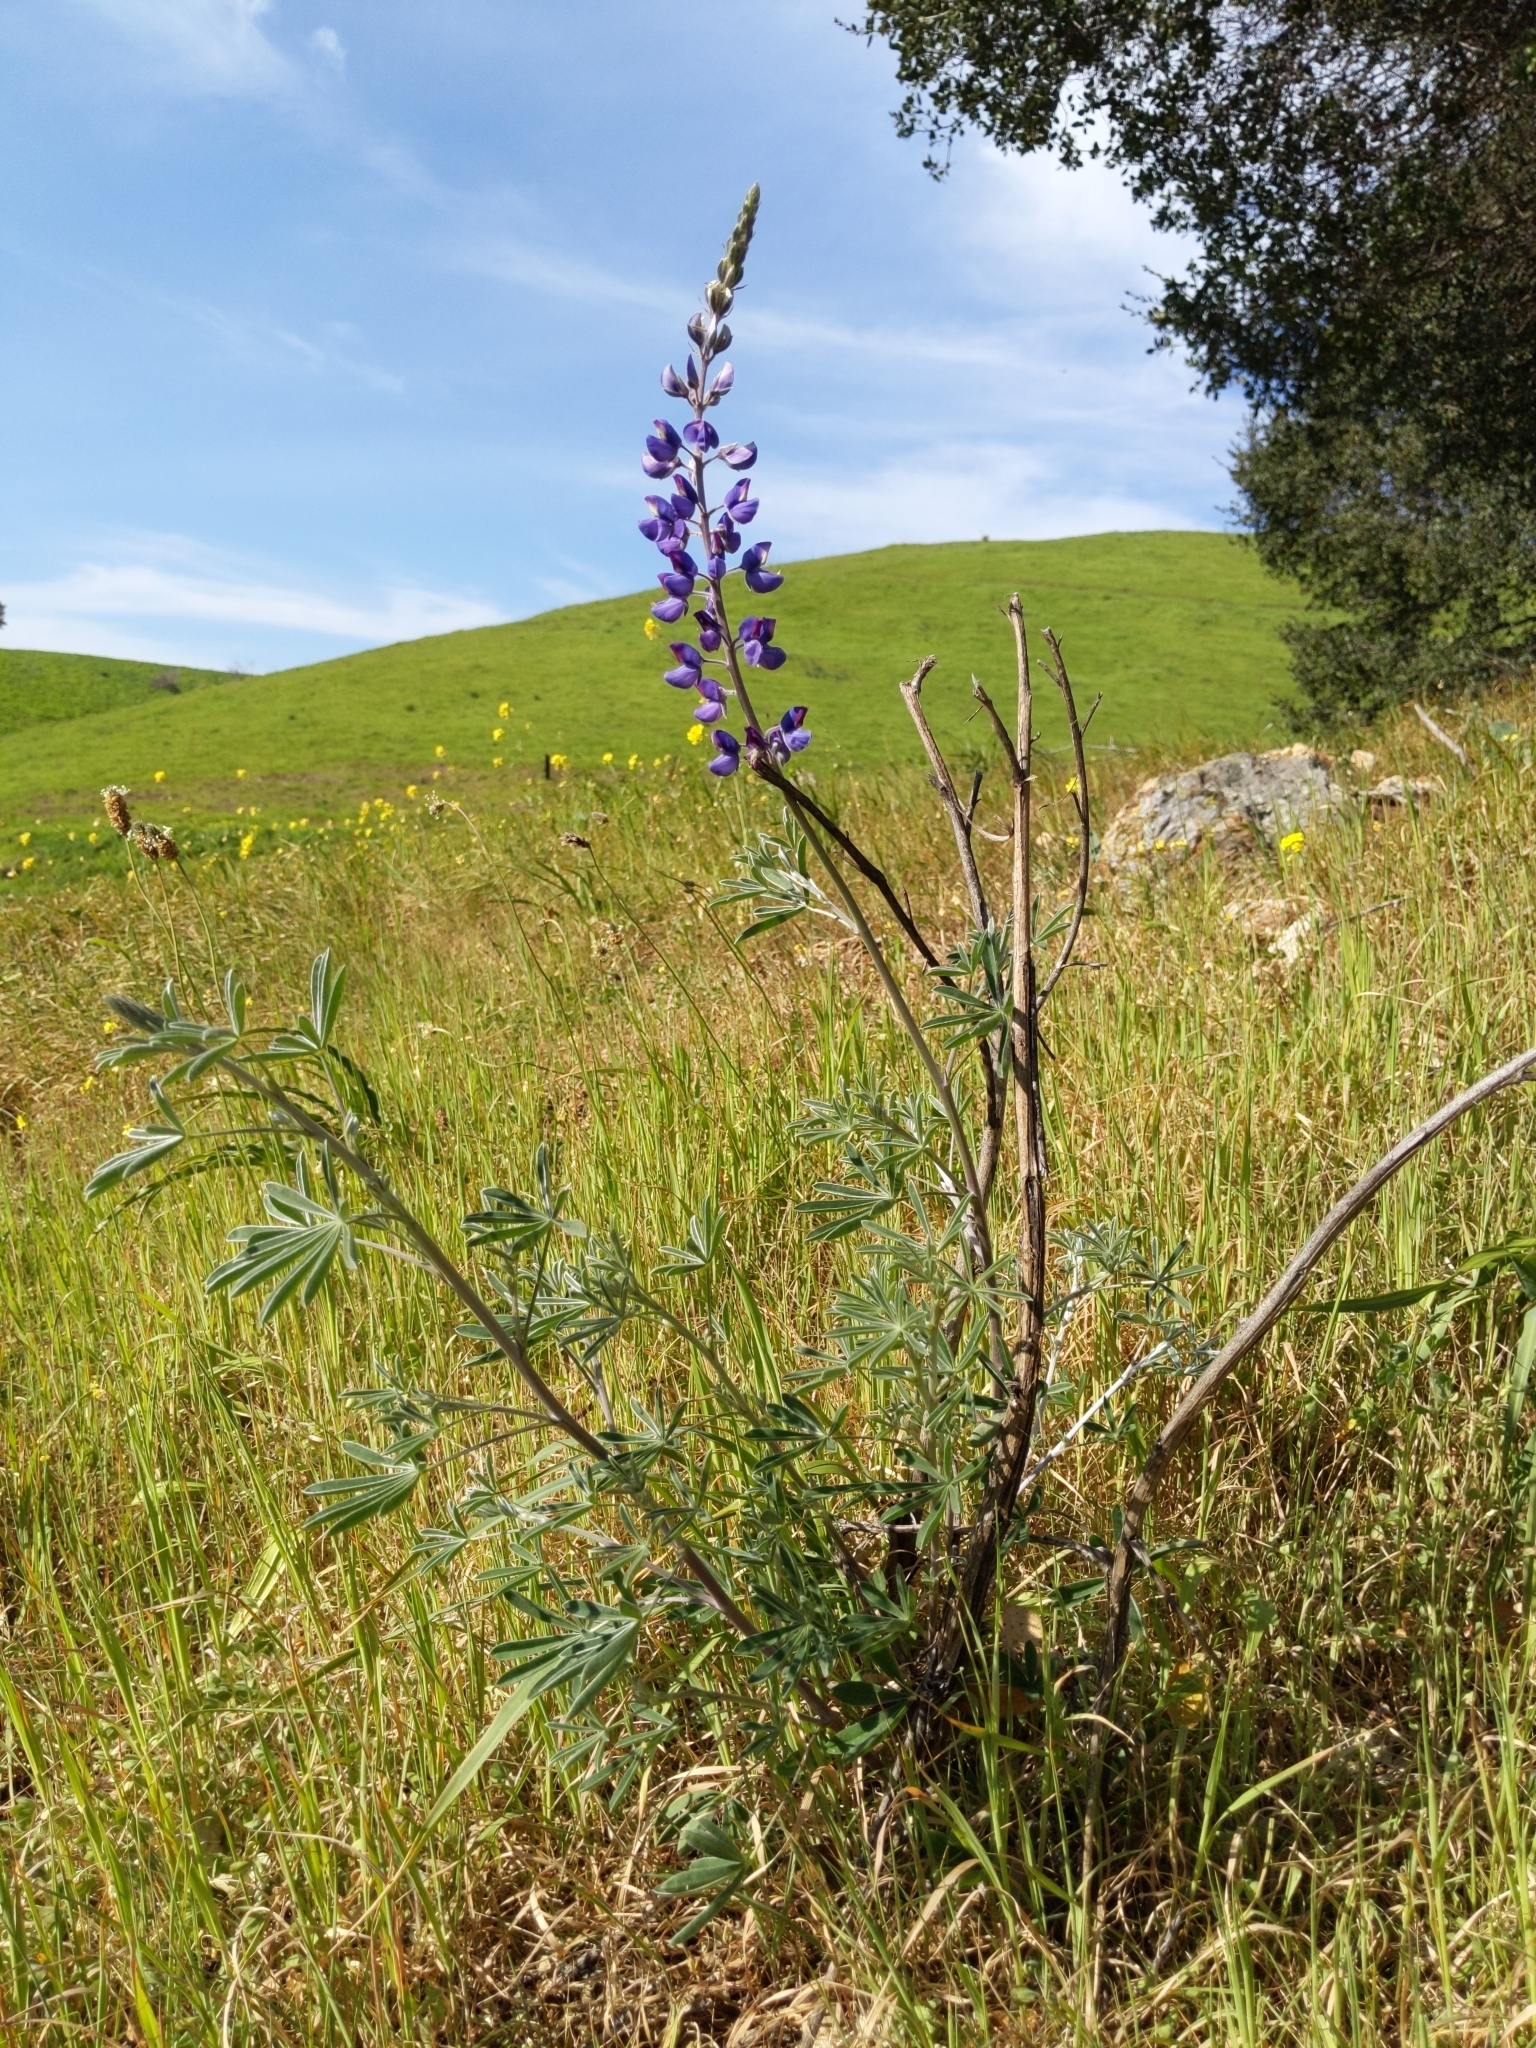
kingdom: Plantae
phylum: Tracheophyta
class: Magnoliopsida
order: Fabales
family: Fabaceae
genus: Lupinus
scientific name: Lupinus albifrons
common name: Foothill lupine
